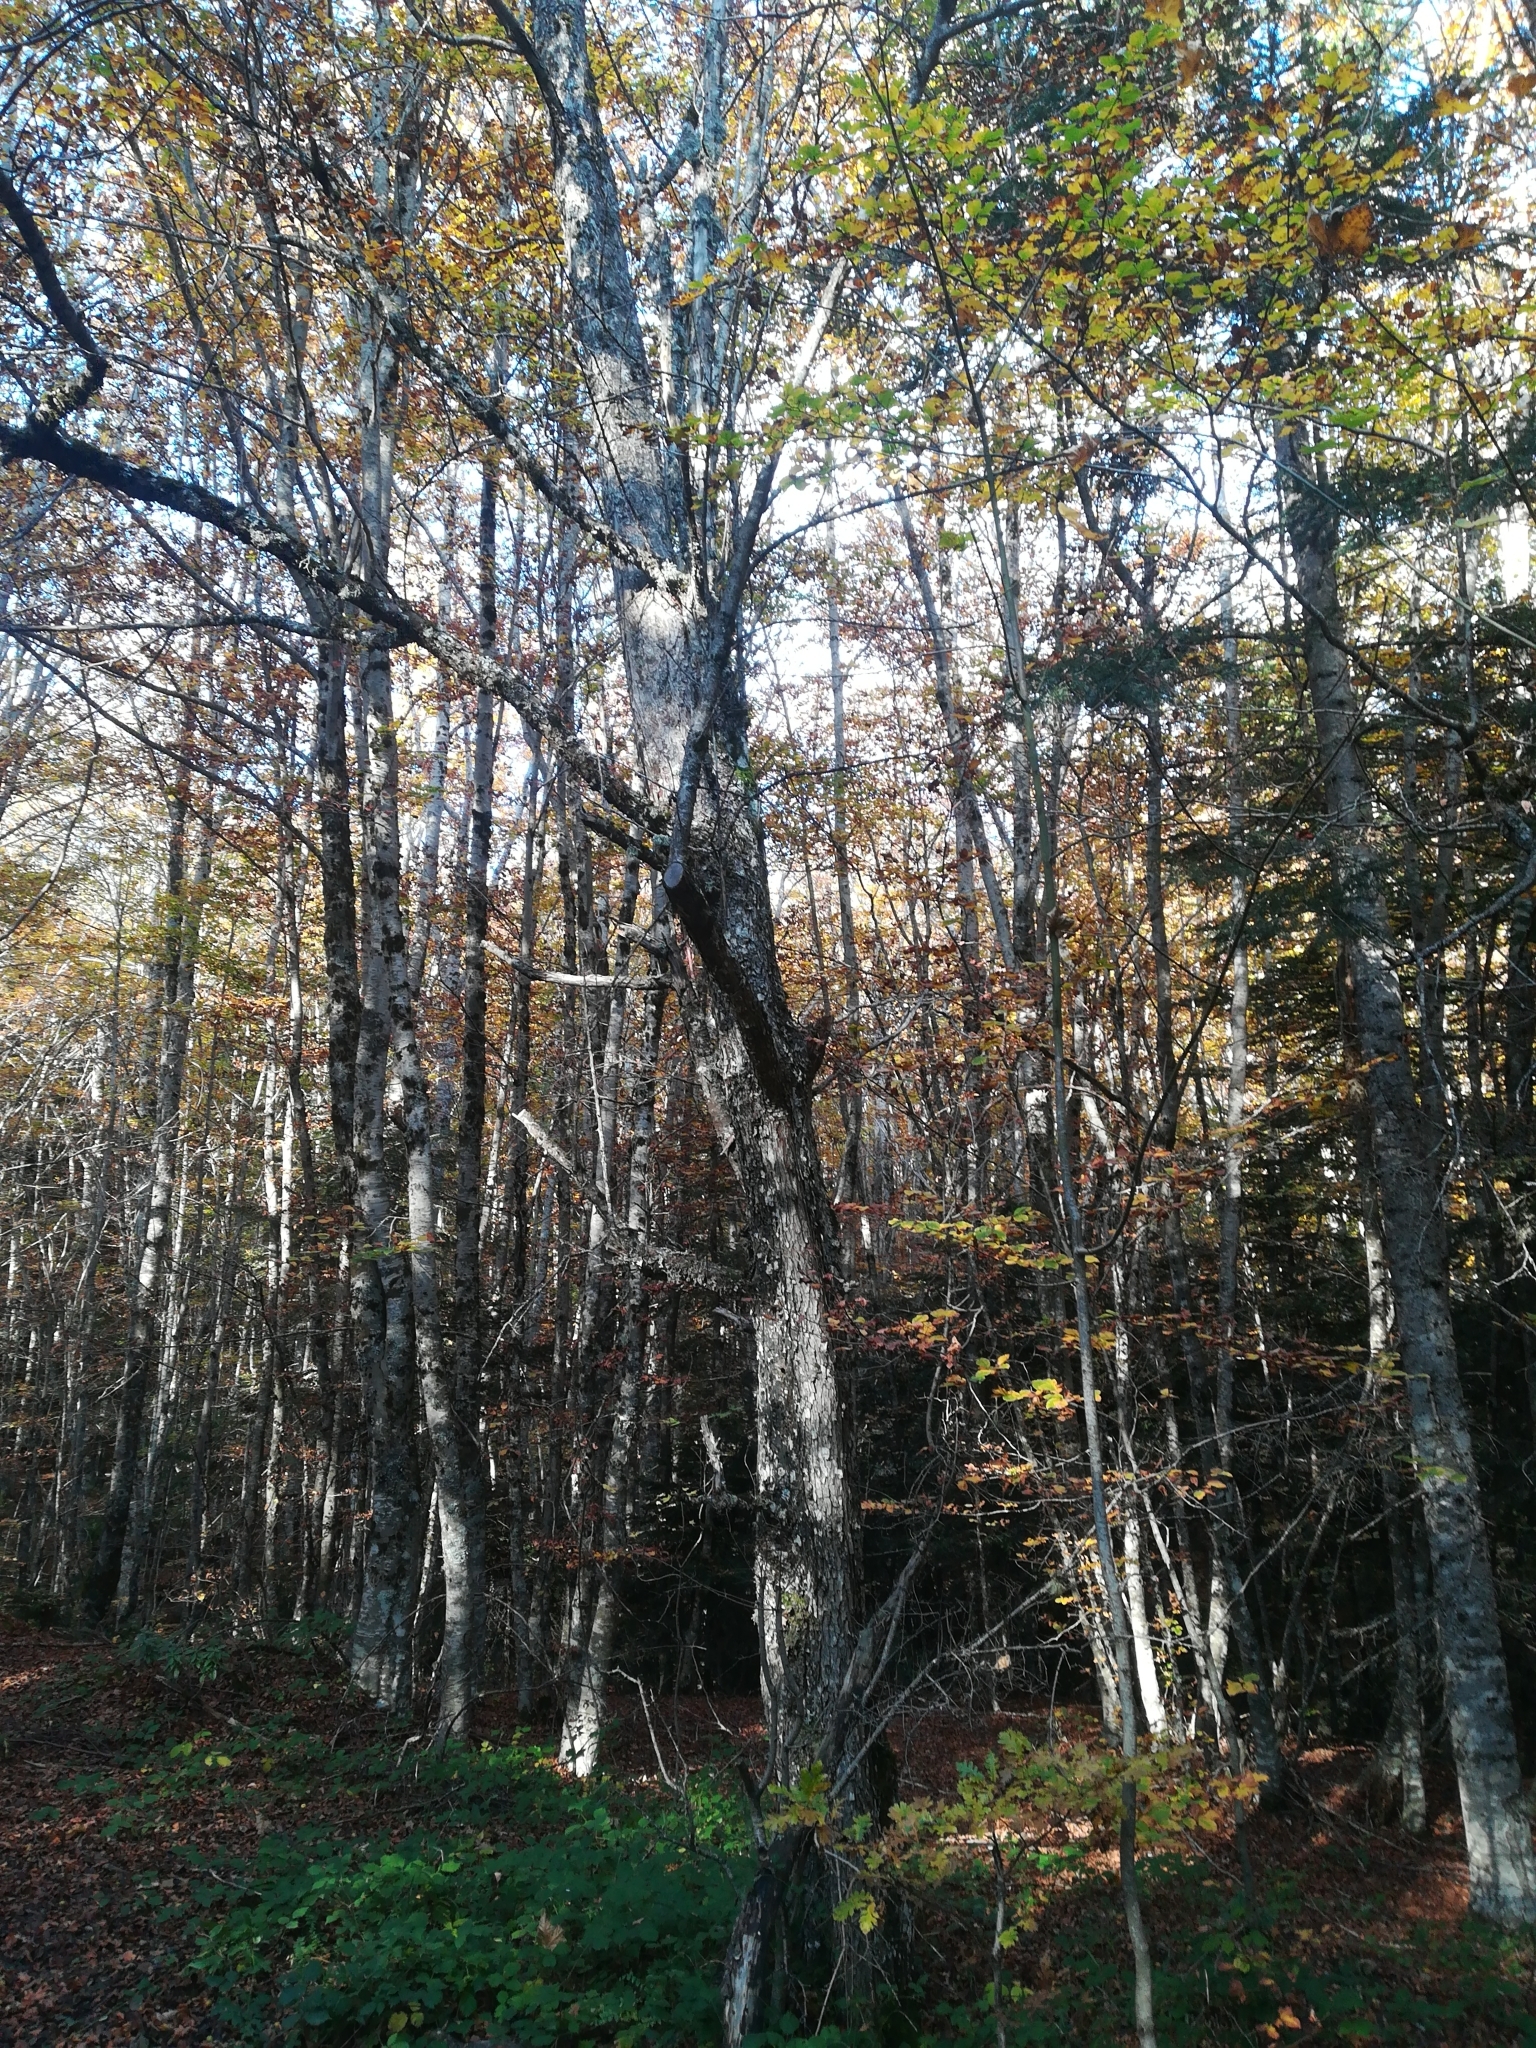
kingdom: Plantae
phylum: Tracheophyta
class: Magnoliopsida
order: Rosales
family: Rosaceae
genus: Malus
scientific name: Malus sylvestris
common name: Crab apple
